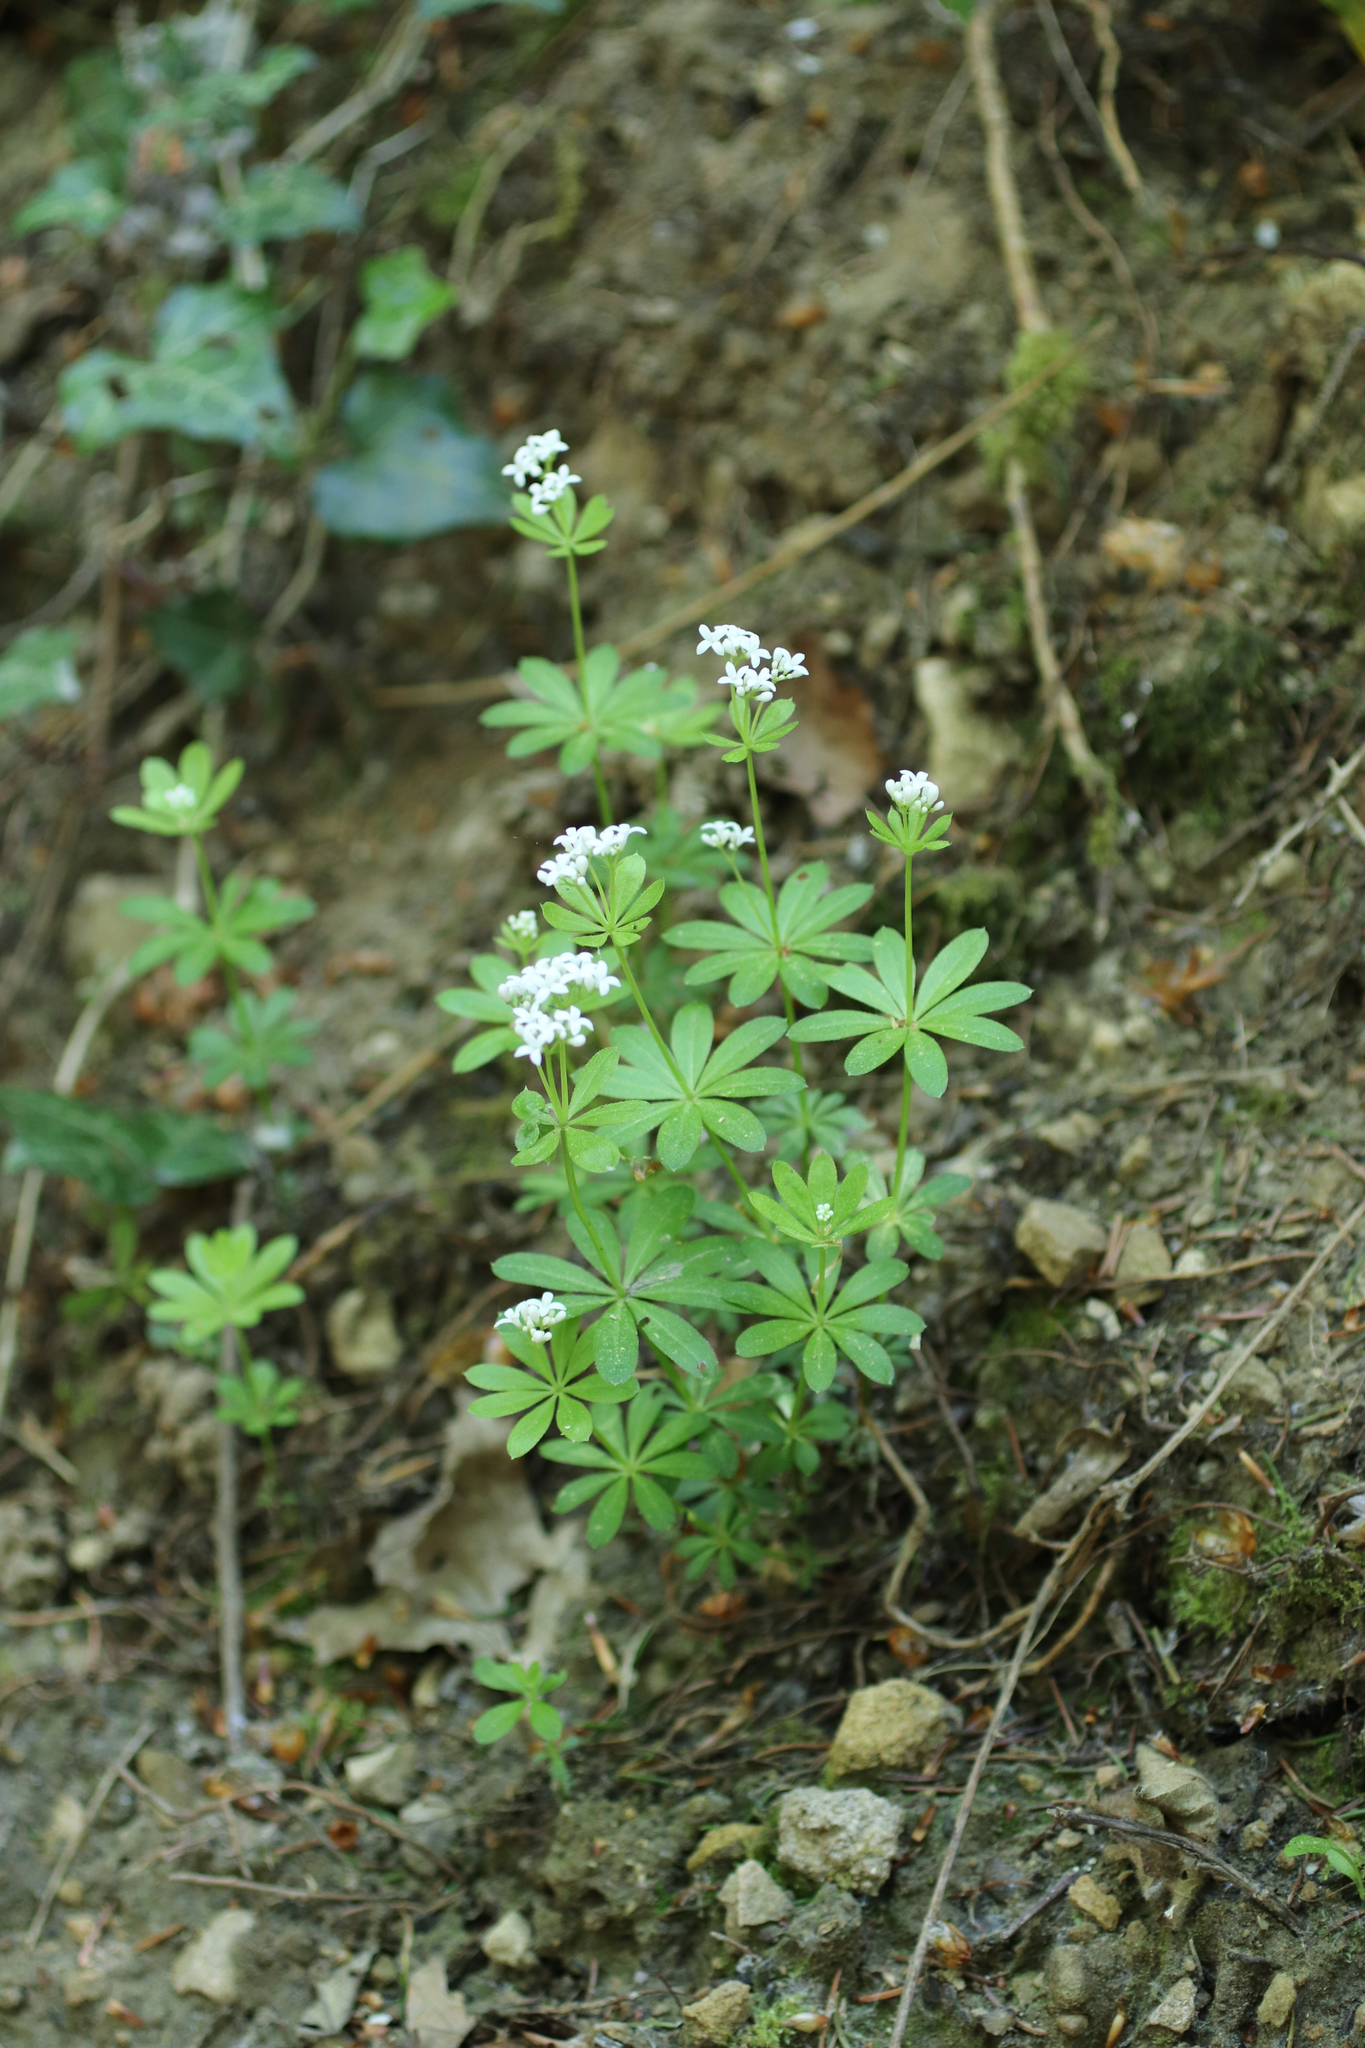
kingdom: Plantae
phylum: Tracheophyta
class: Magnoliopsida
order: Gentianales
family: Rubiaceae
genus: Galium
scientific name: Galium odoratum
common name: Sweet woodruff
